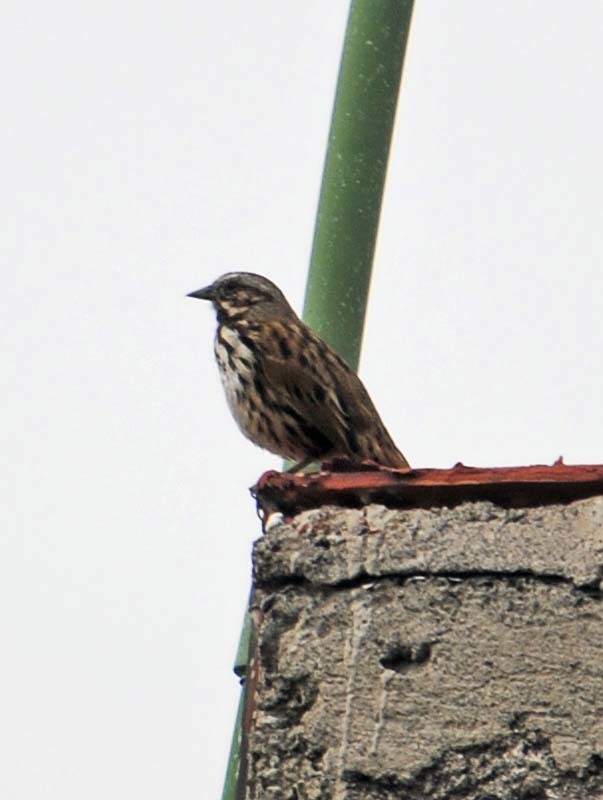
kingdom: Animalia
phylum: Chordata
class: Aves
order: Passeriformes
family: Passerellidae
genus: Melospiza
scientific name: Melospiza melodia
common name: Song sparrow
